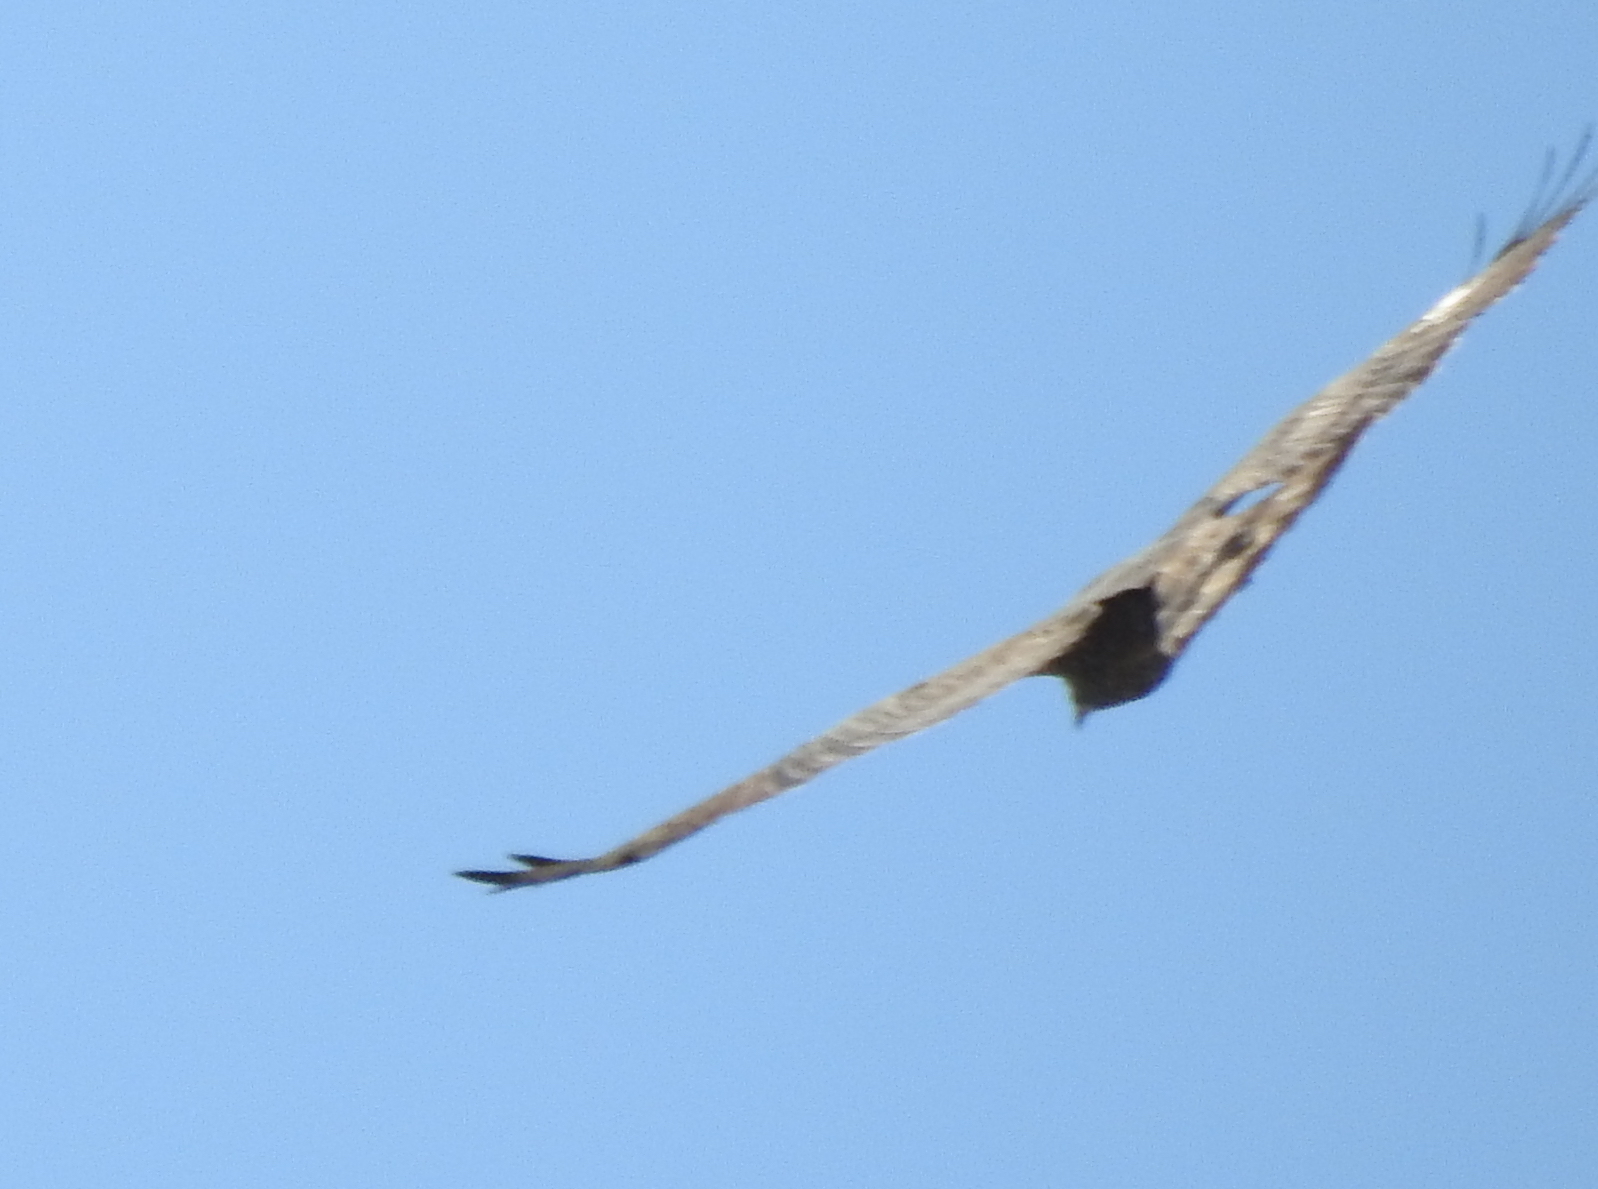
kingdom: Animalia
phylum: Chordata
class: Aves
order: Accipitriformes
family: Accipitridae
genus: Pernis
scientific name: Pernis ptilorhynchus
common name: Crested honey buzzard
